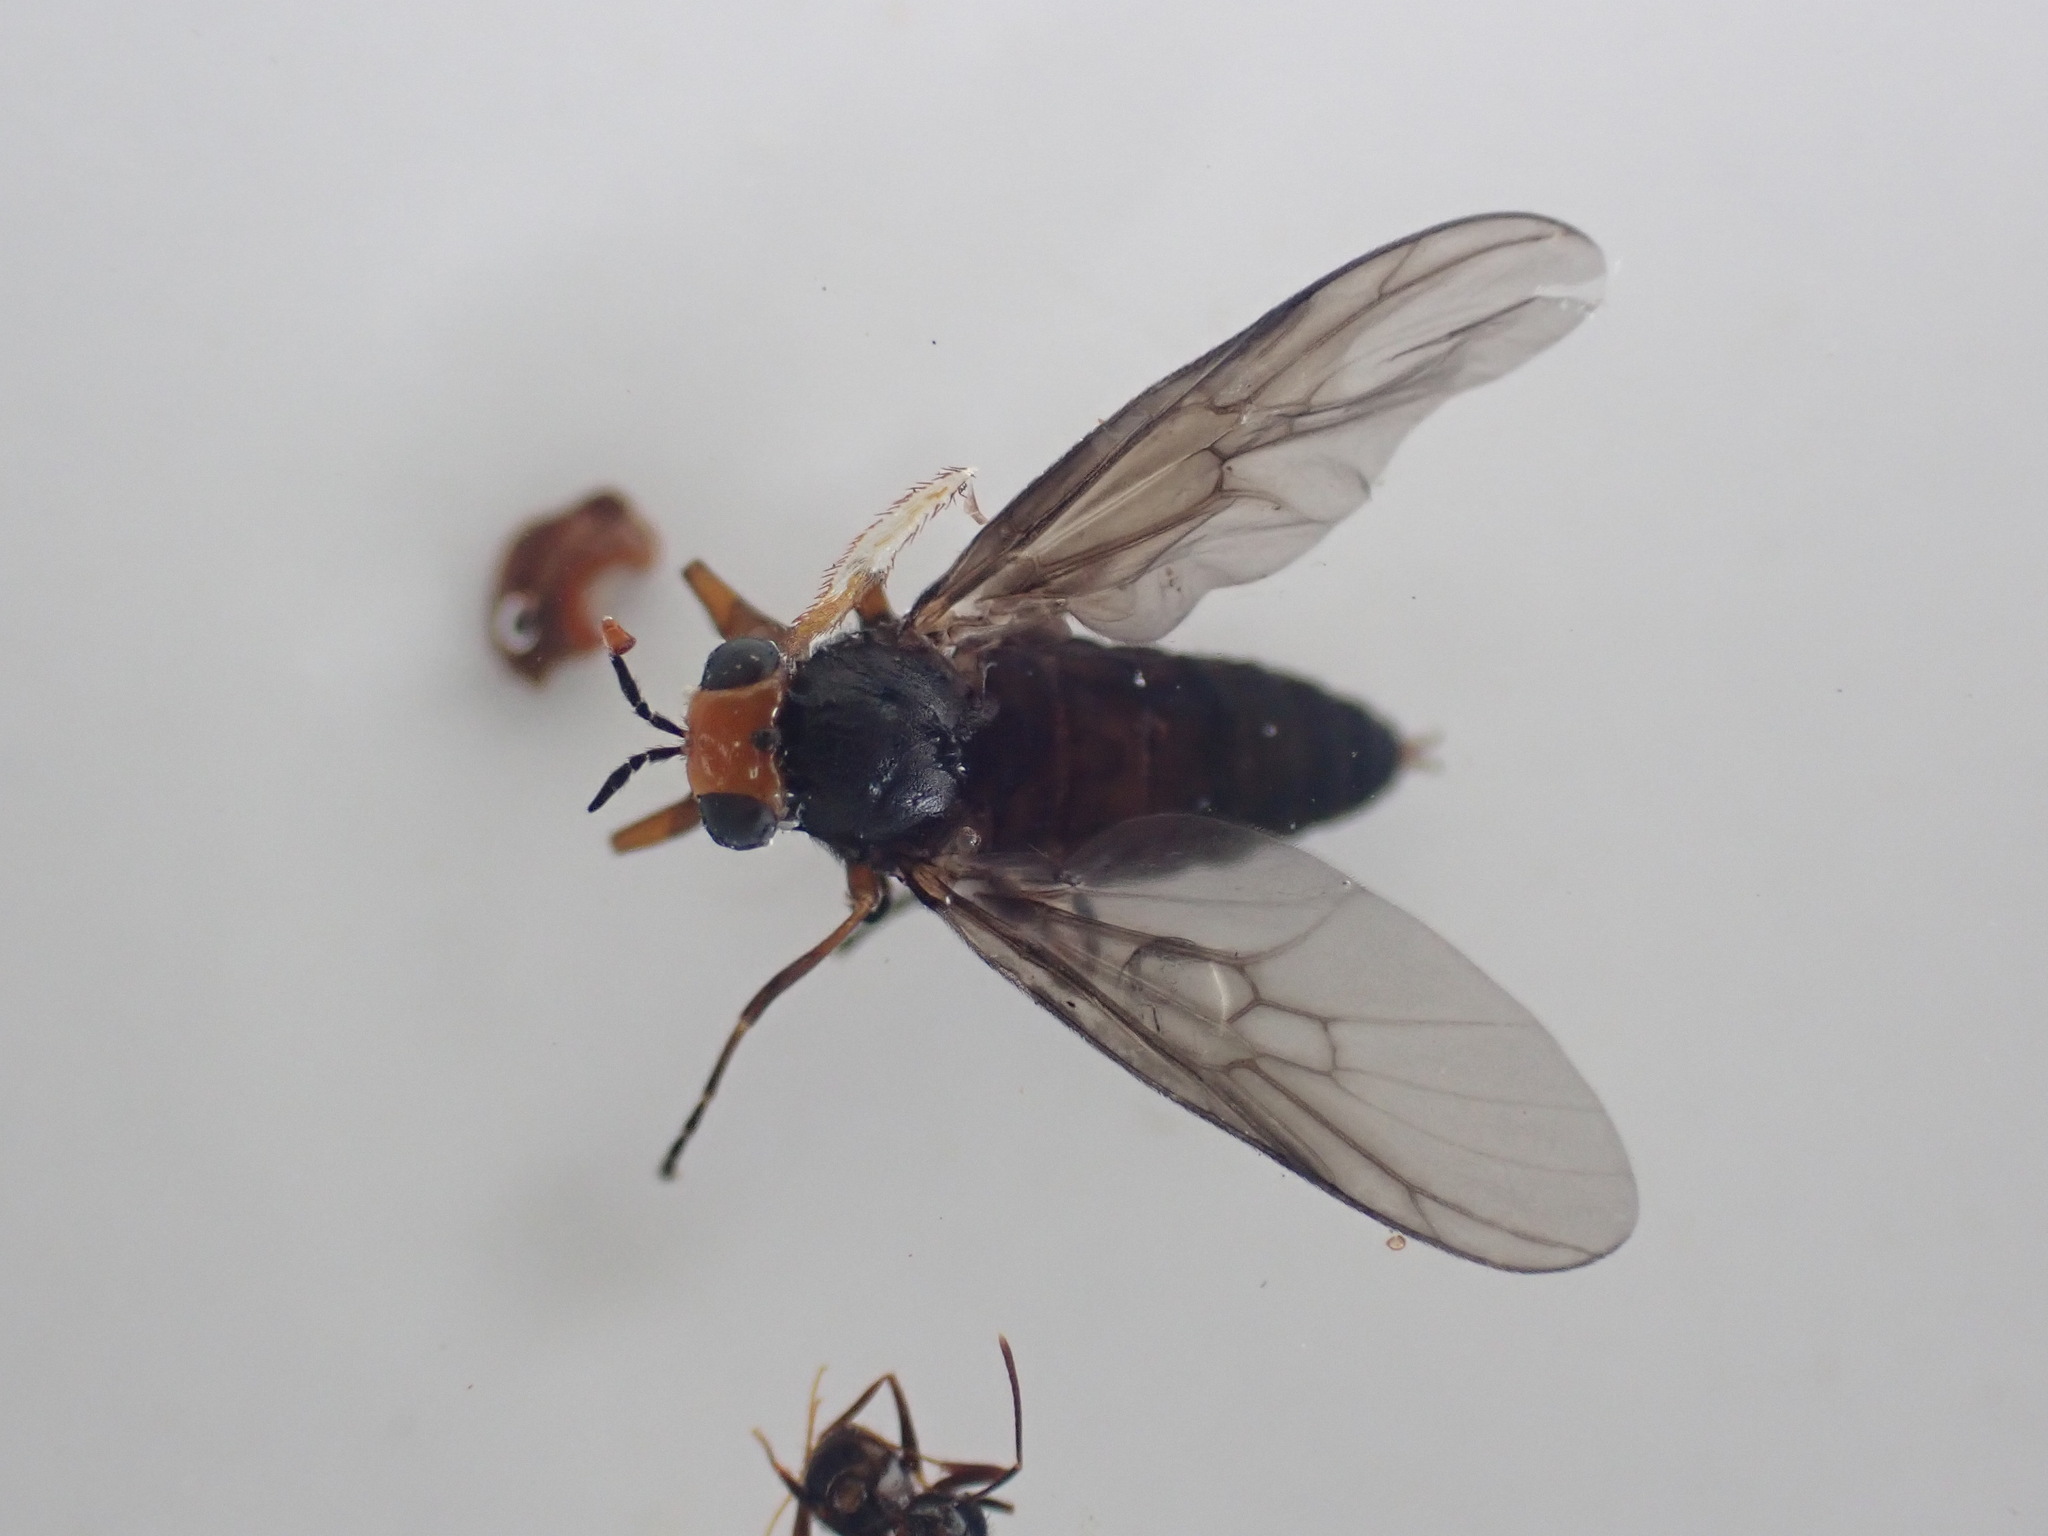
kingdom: Animalia
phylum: Arthropoda
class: Insecta
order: Diptera
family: Stratiomyidae
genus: Inopus
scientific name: Inopus rubriceps
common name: Soldier fly
